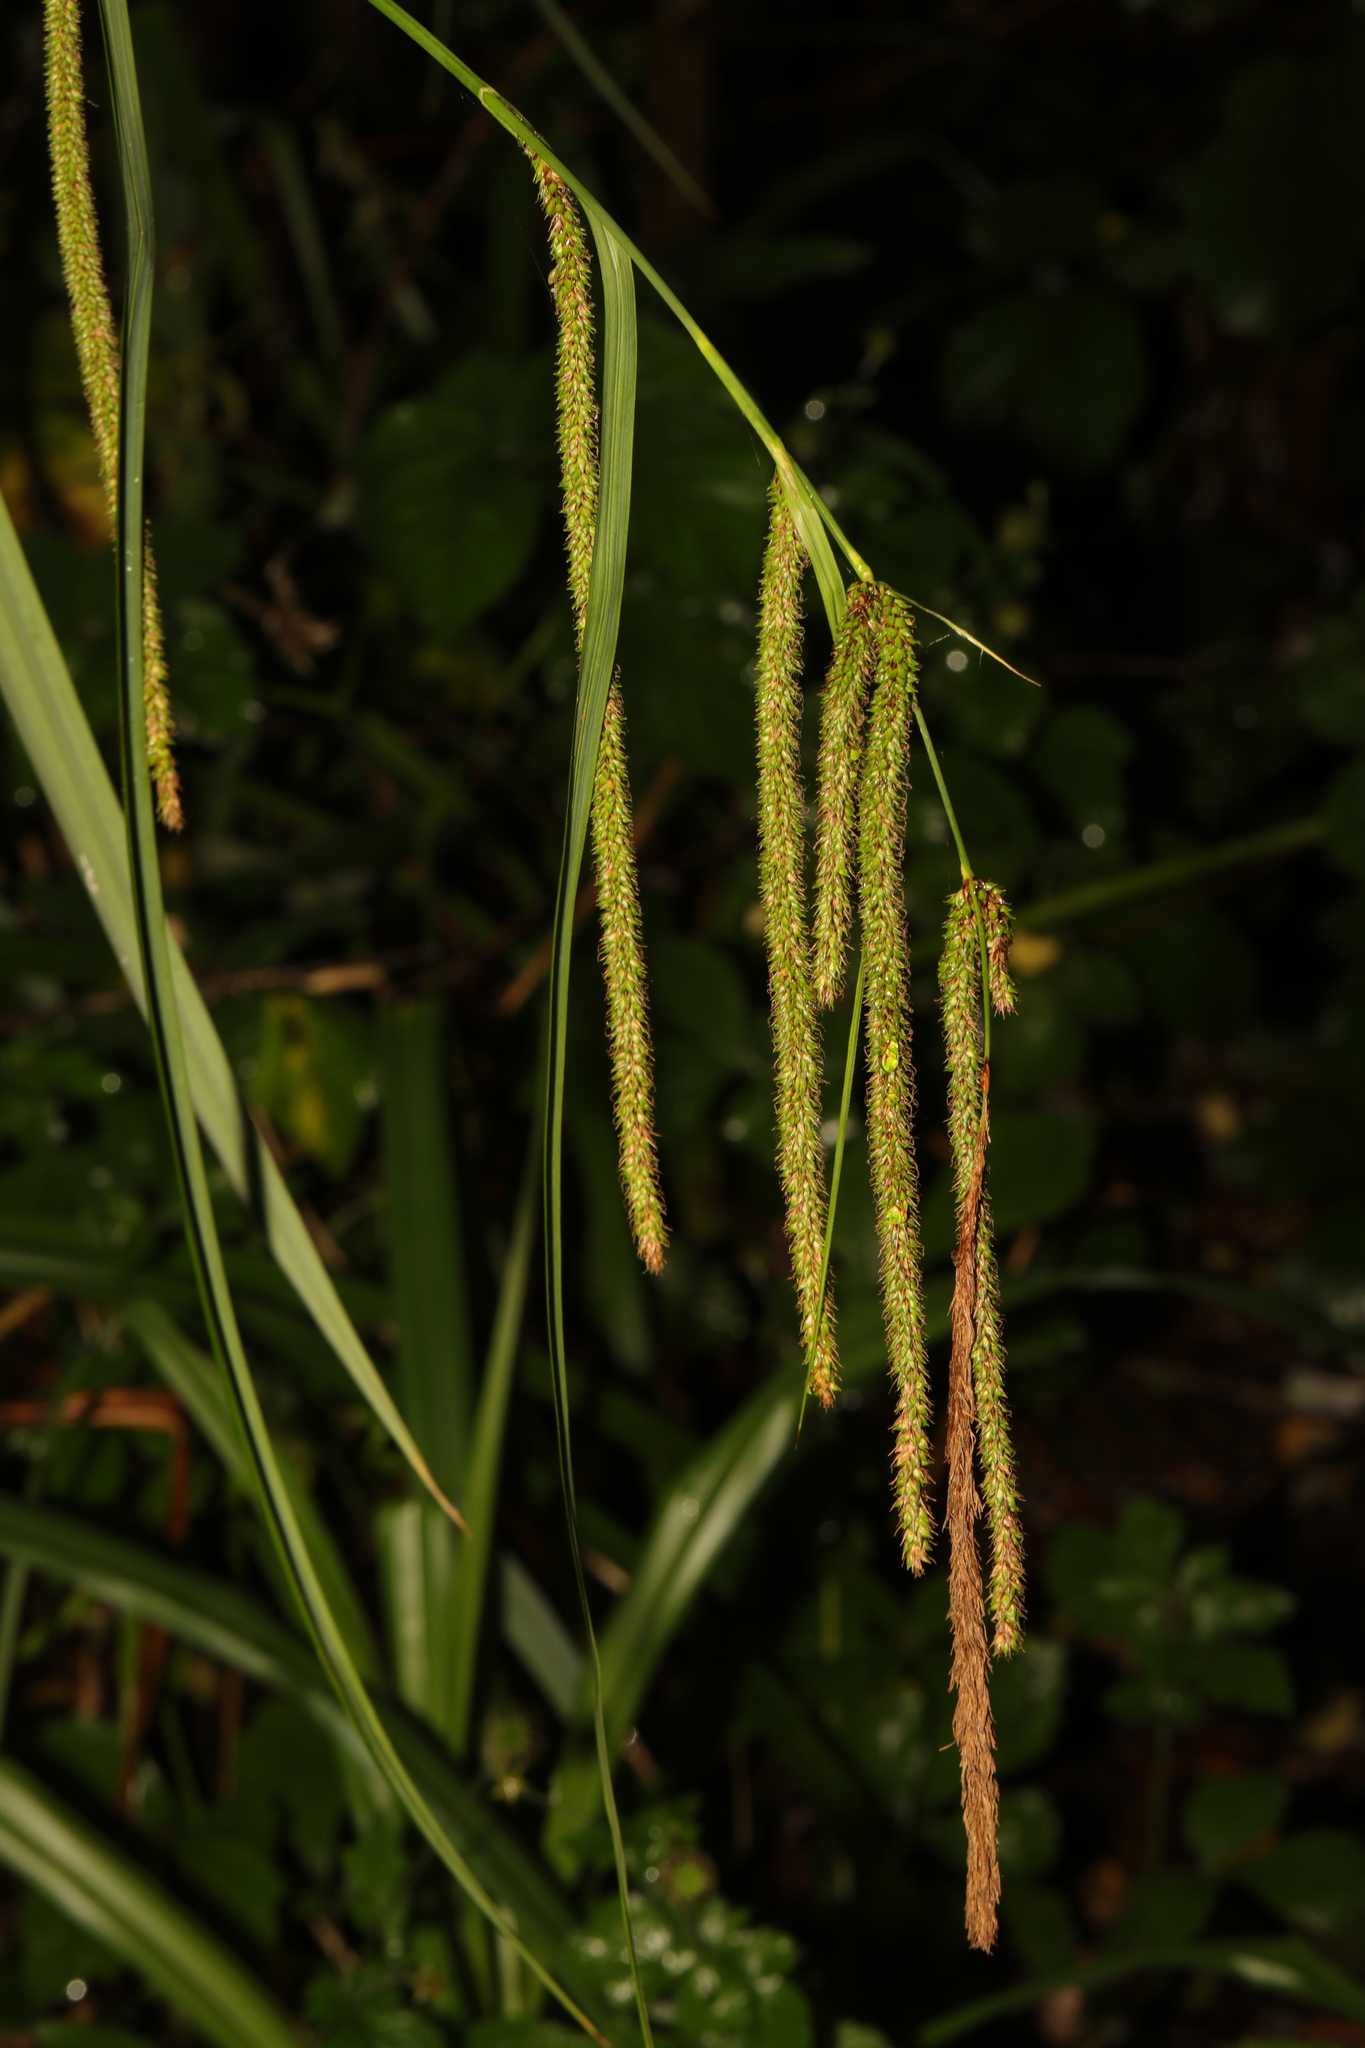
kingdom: Plantae
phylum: Tracheophyta
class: Liliopsida
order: Poales
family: Cyperaceae
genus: Carex
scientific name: Carex pendula
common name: Pendulous sedge
